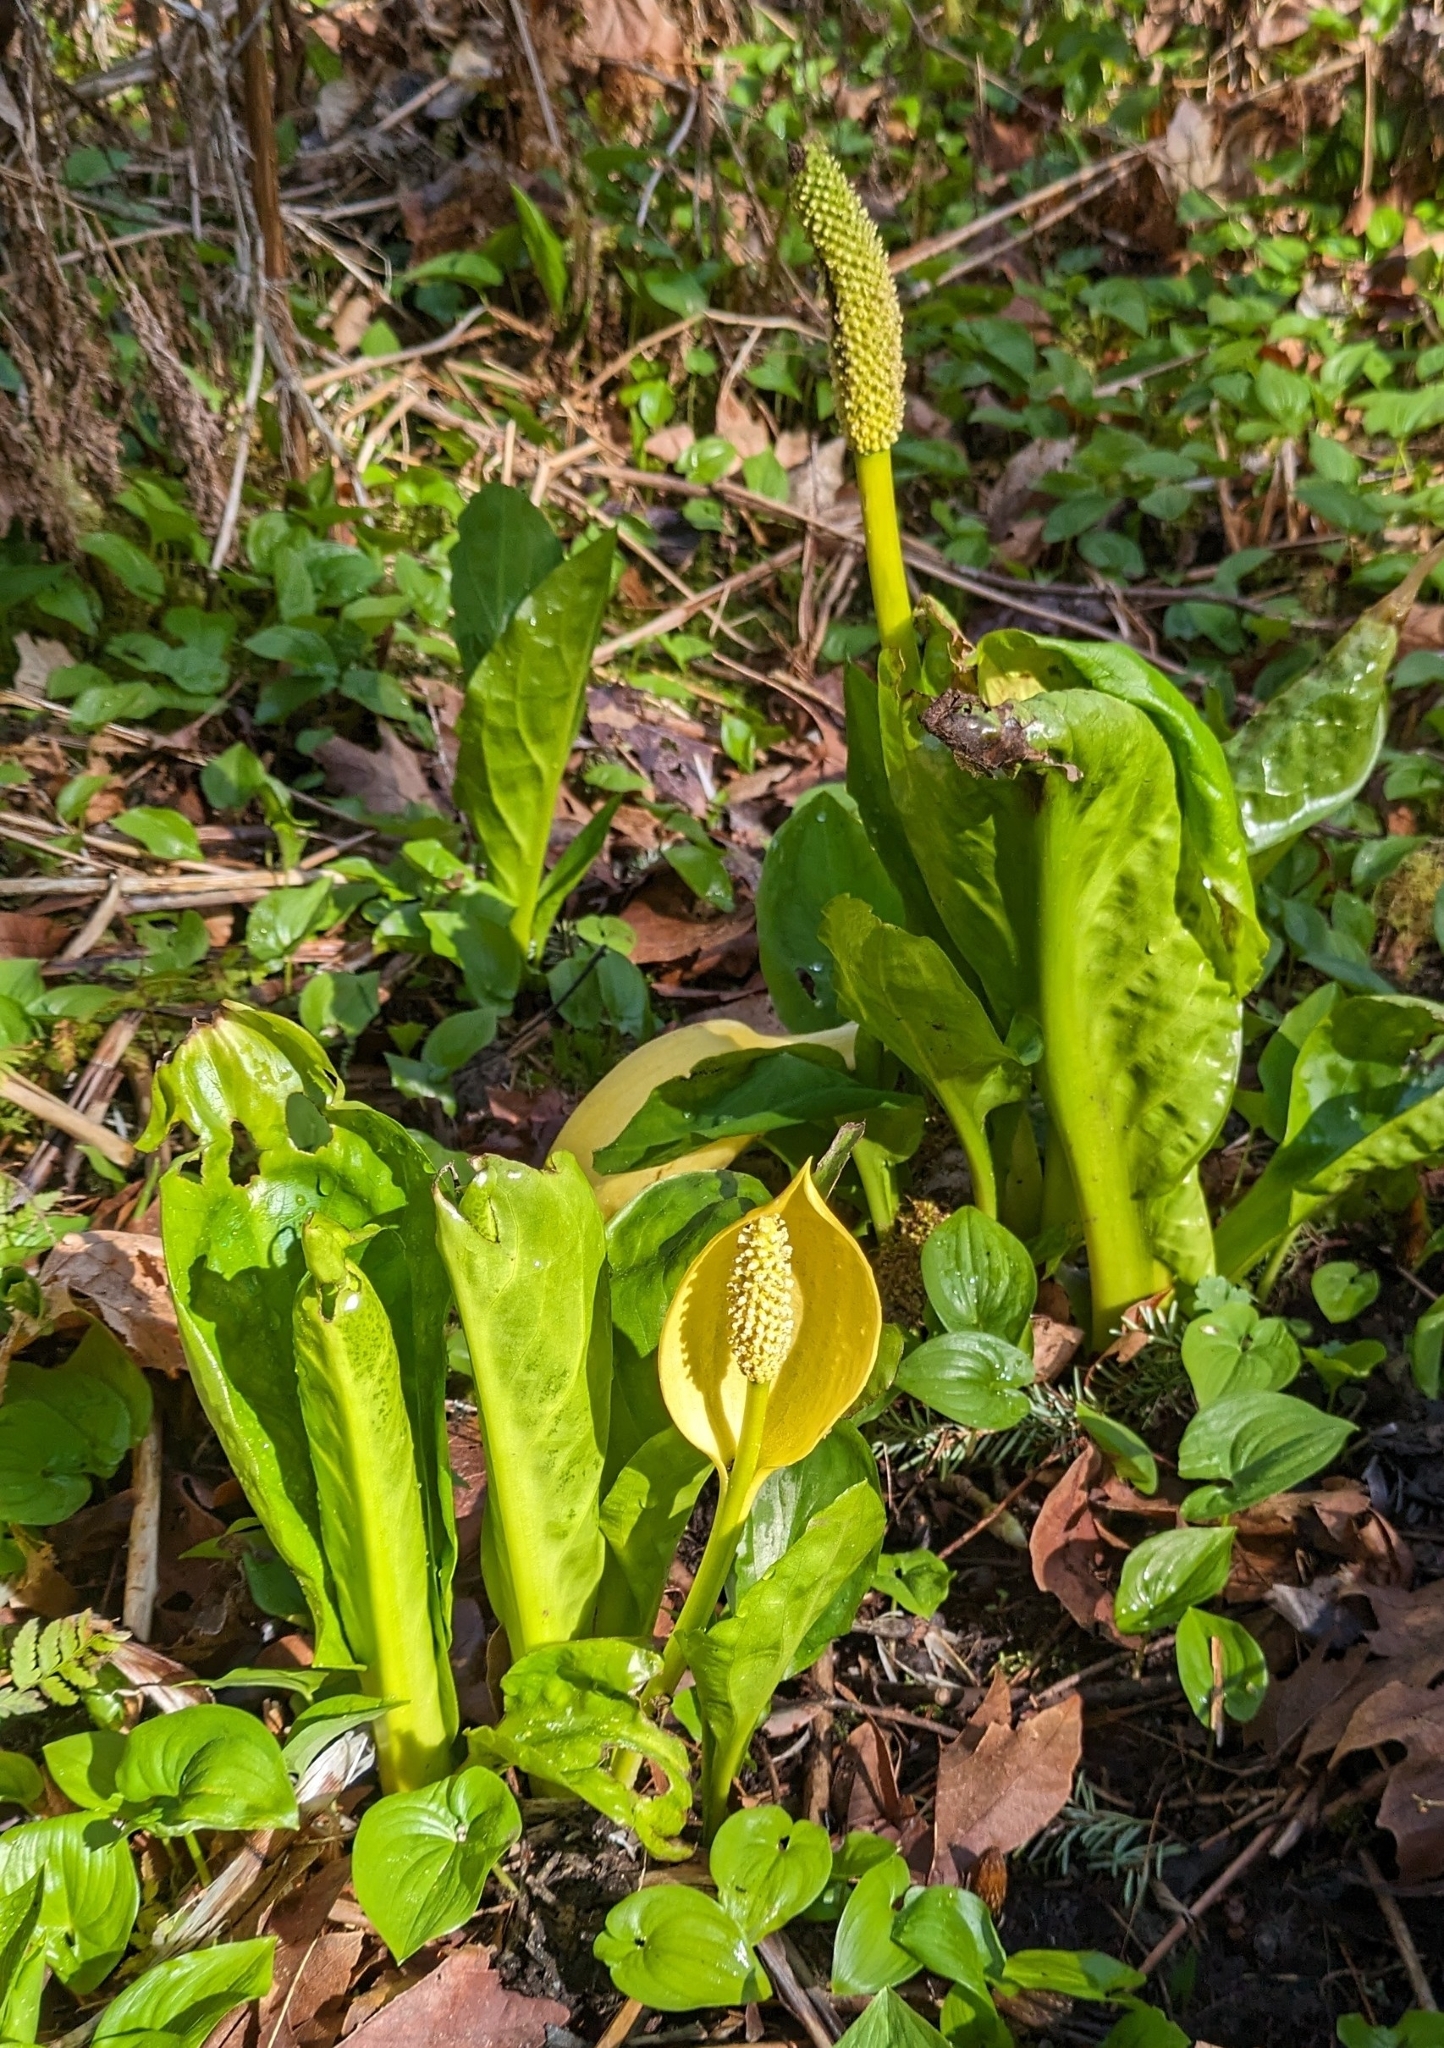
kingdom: Plantae
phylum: Tracheophyta
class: Liliopsida
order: Alismatales
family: Araceae
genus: Lysichiton
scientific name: Lysichiton americanus
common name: American skunk cabbage
